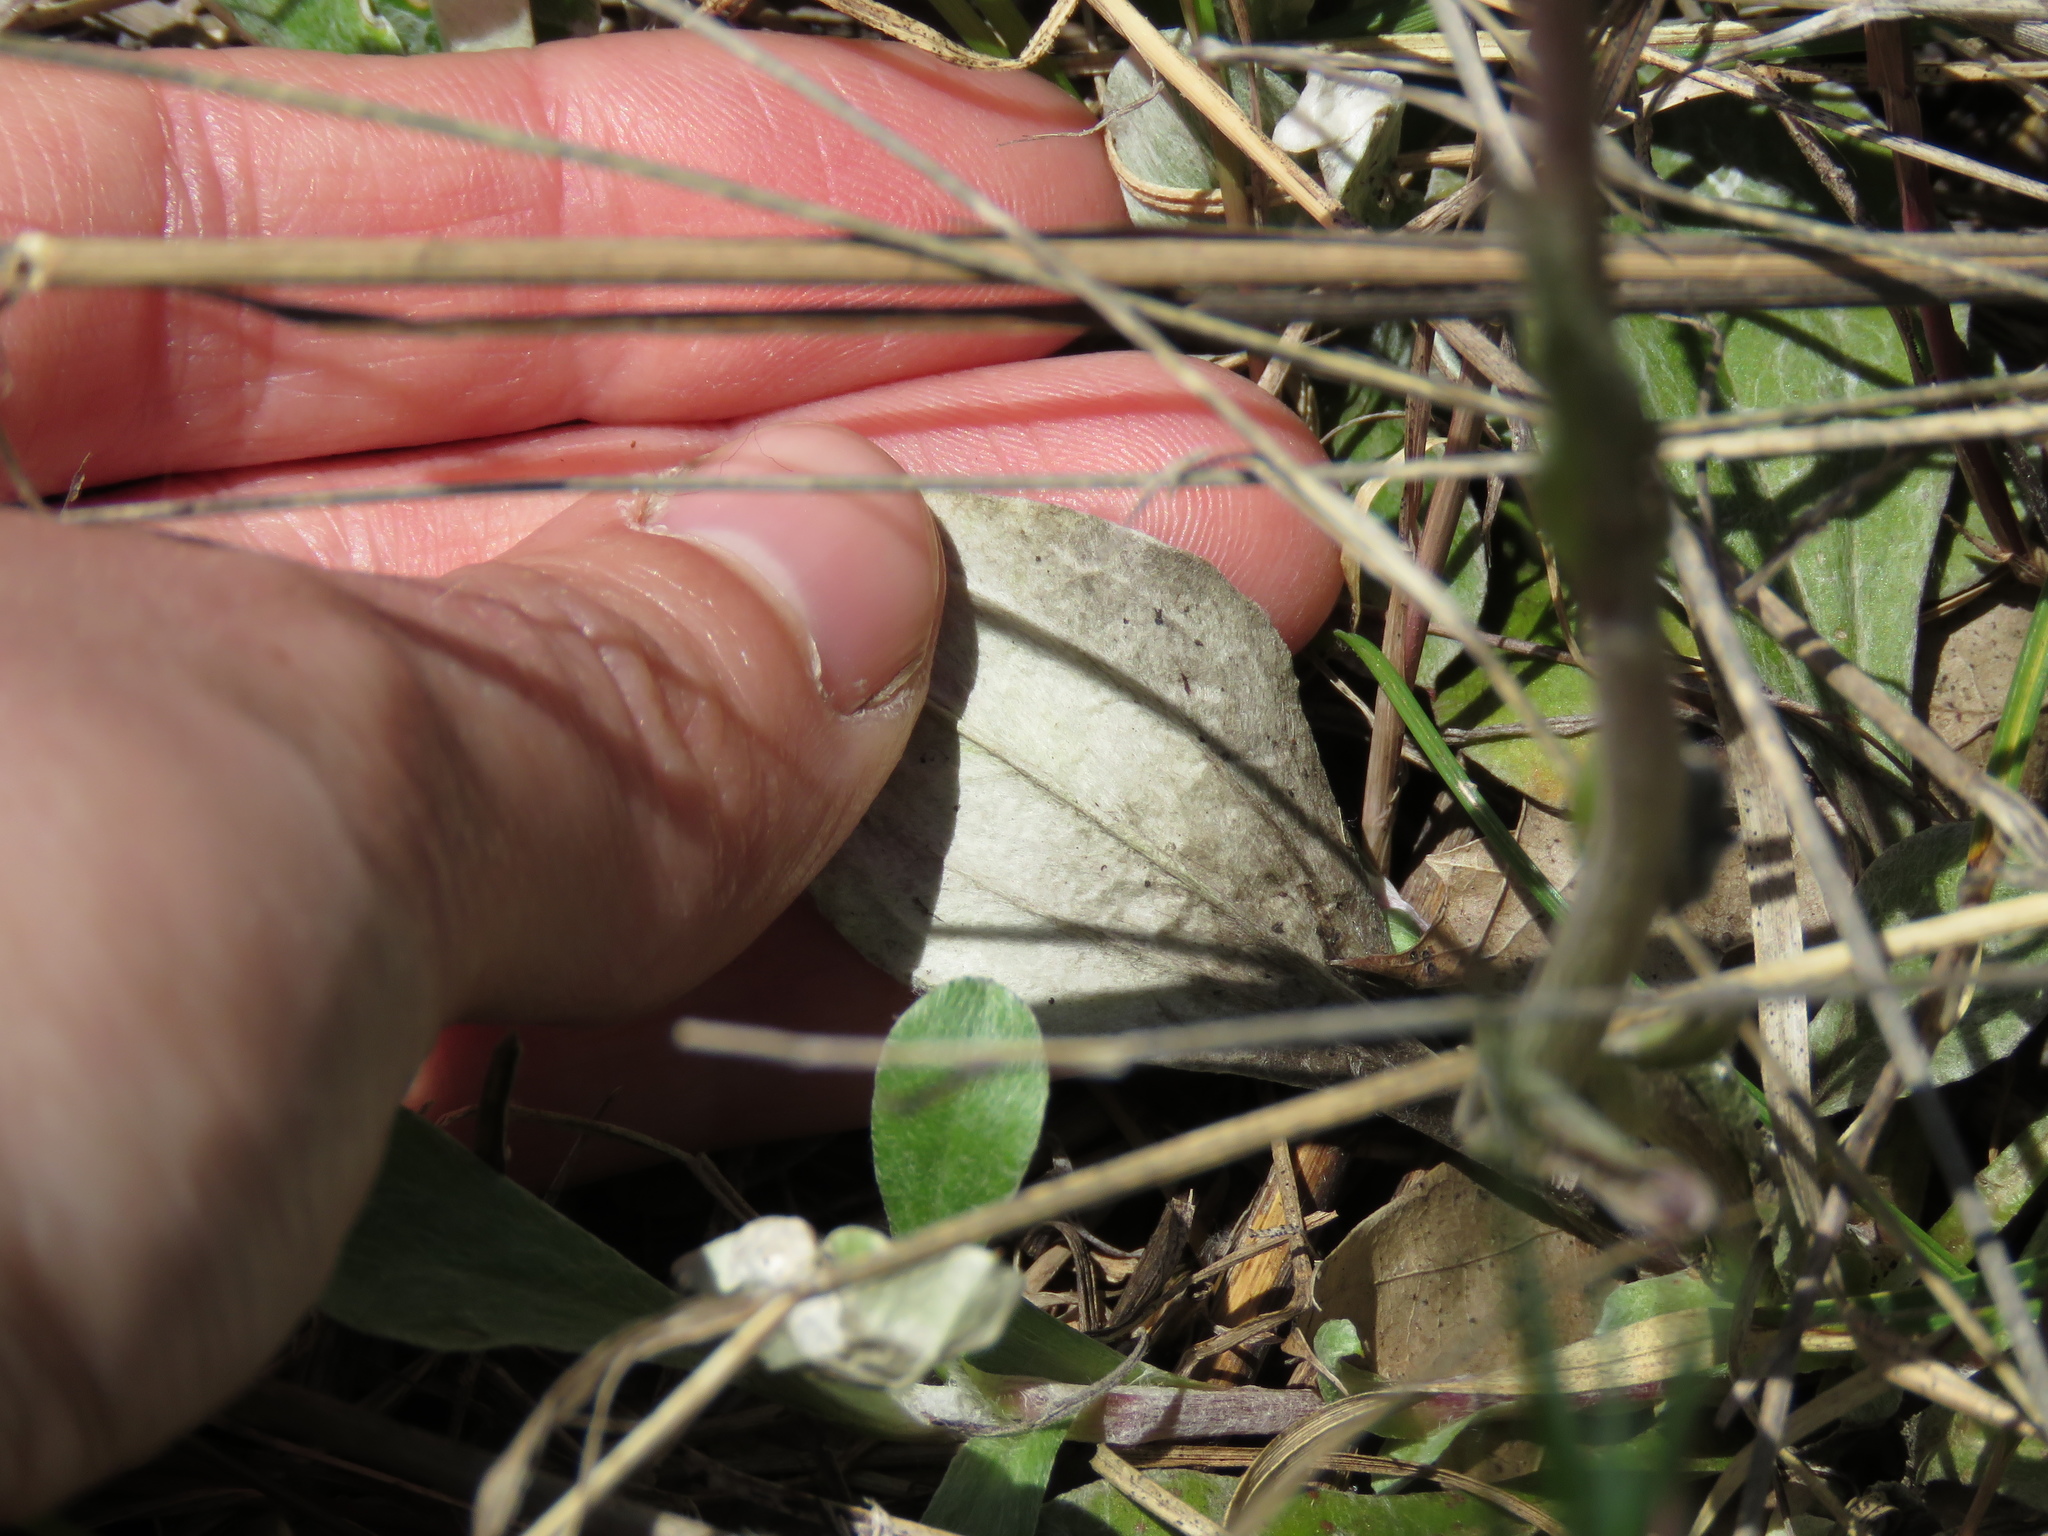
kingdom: Plantae
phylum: Tracheophyta
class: Magnoliopsida
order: Asterales
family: Asteraceae
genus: Antennaria
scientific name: Antennaria plantaginifolia
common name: Plantain-leaved pussytoes
